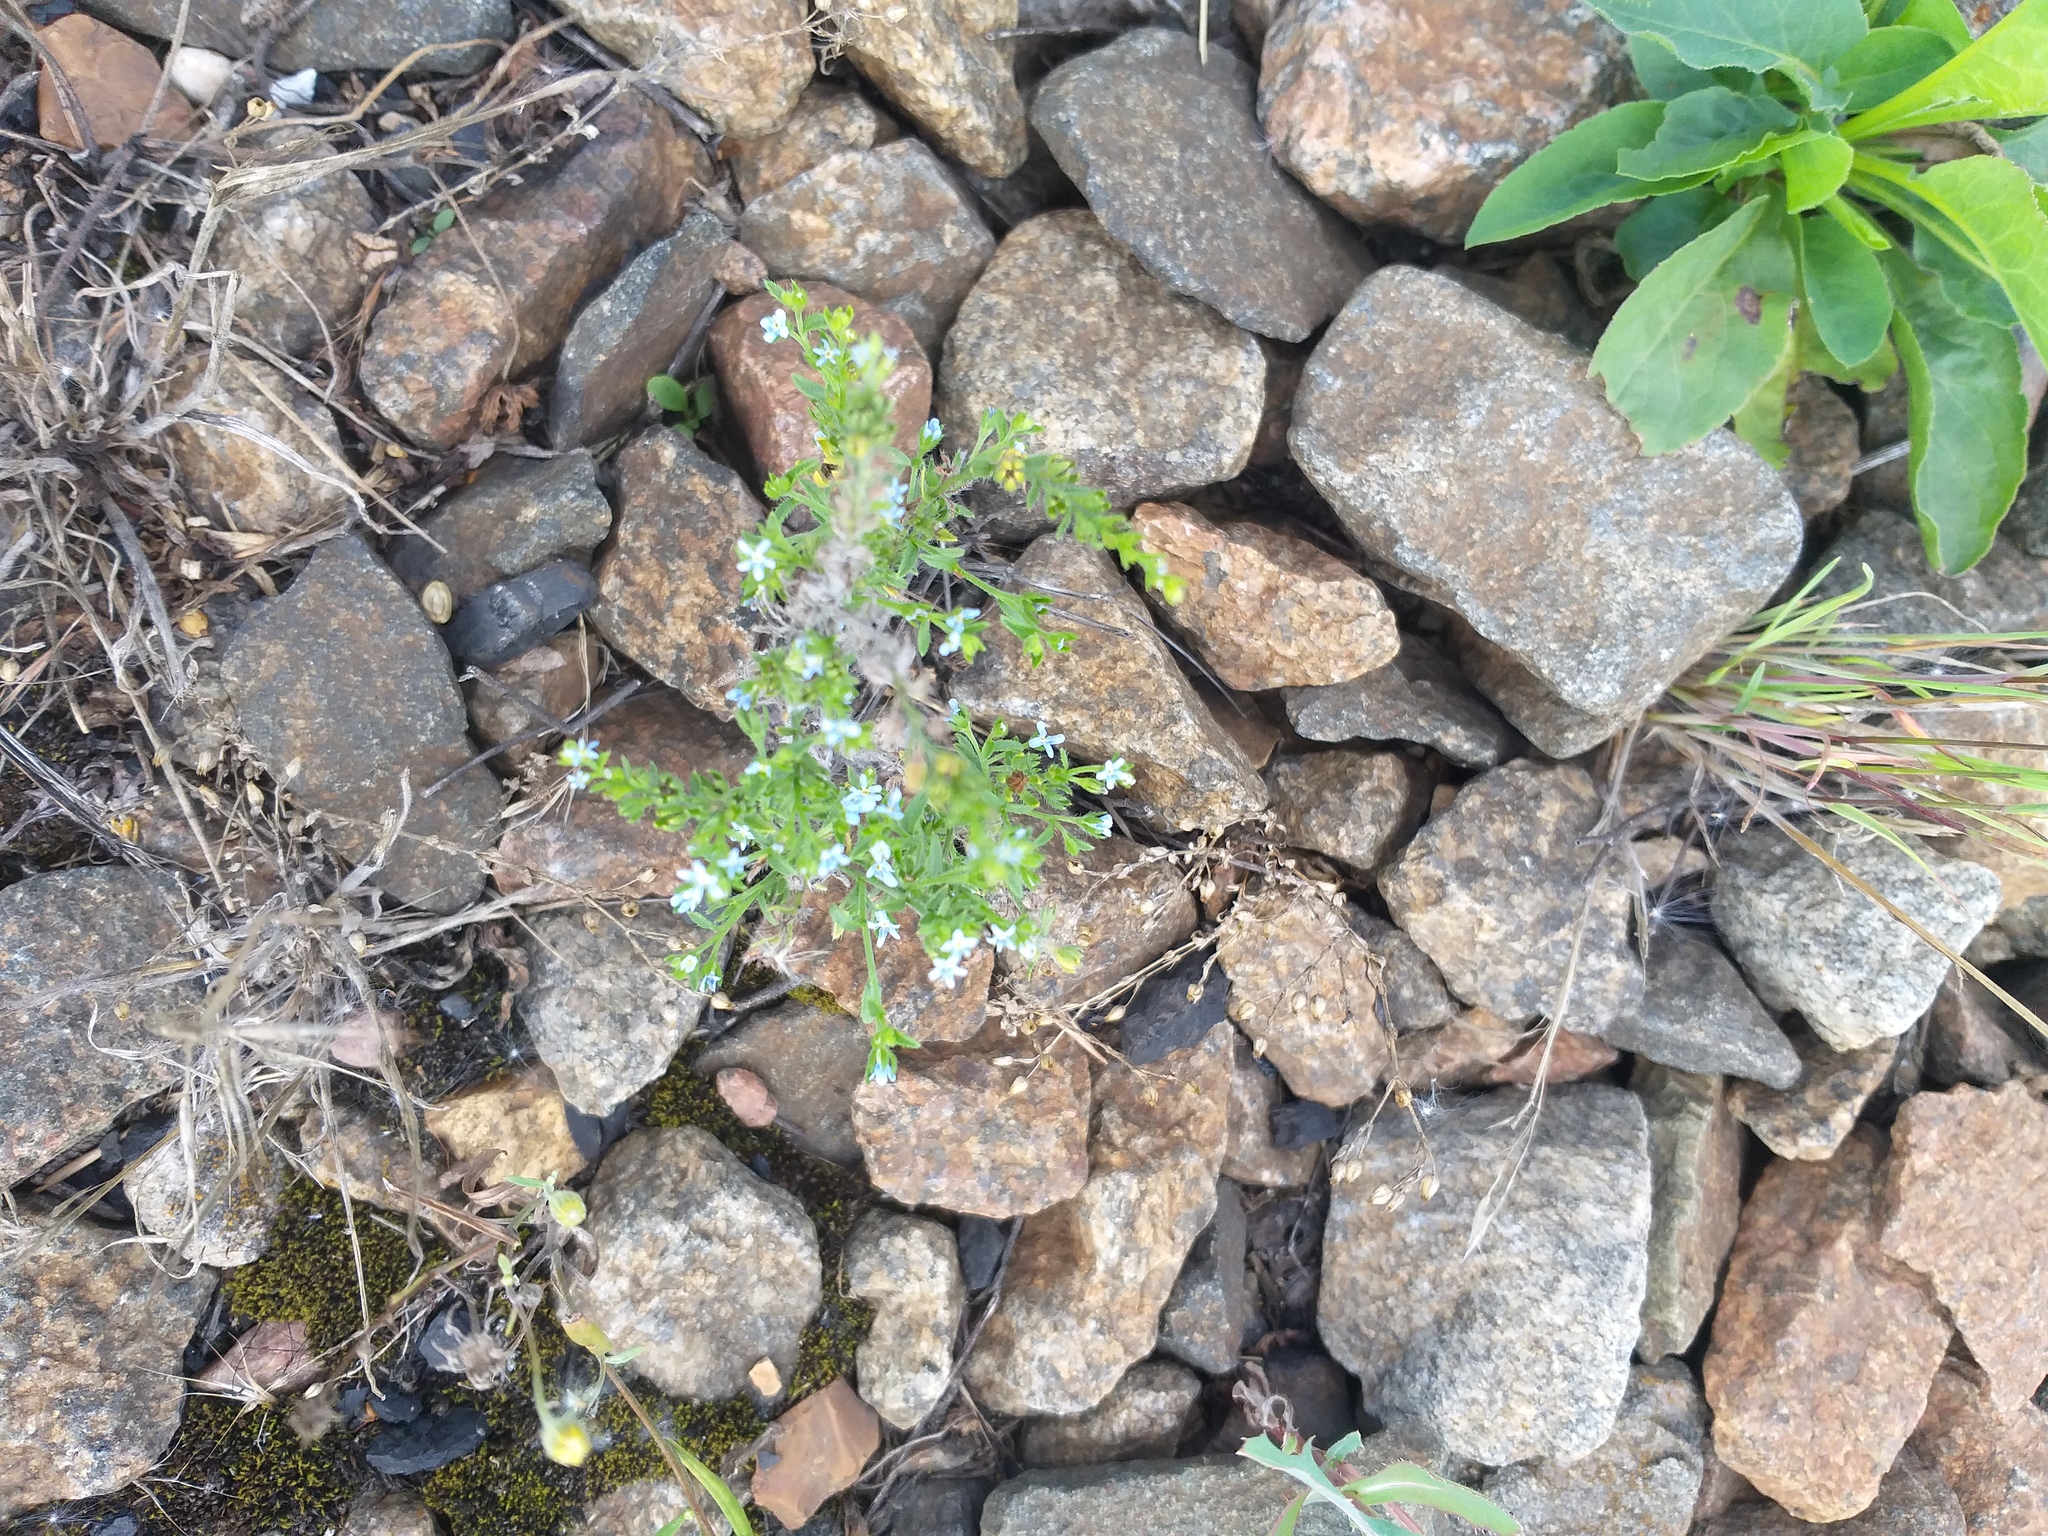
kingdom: Plantae
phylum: Tracheophyta
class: Magnoliopsida
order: Boraginales
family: Boraginaceae
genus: Lappula
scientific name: Lappula squarrosa
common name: European stickseed
